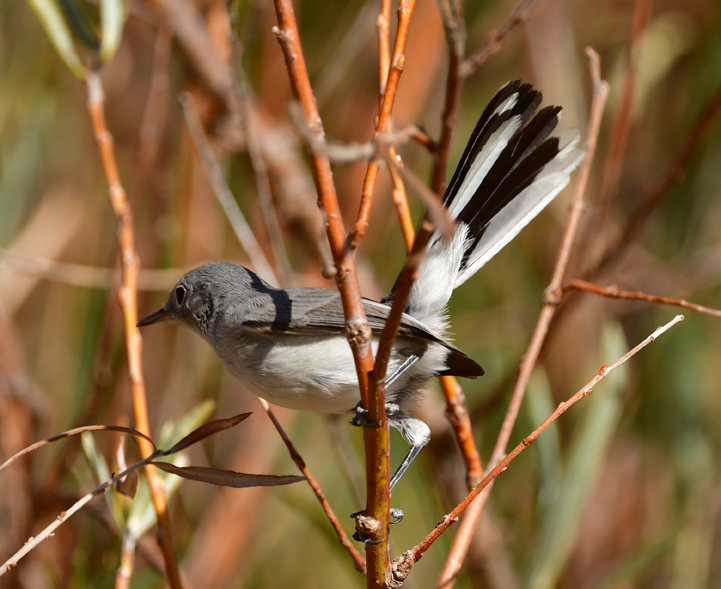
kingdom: Animalia
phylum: Chordata
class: Aves
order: Passeriformes
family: Polioptilidae
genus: Polioptila
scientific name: Polioptila caerulea
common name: Blue-gray gnatcatcher
